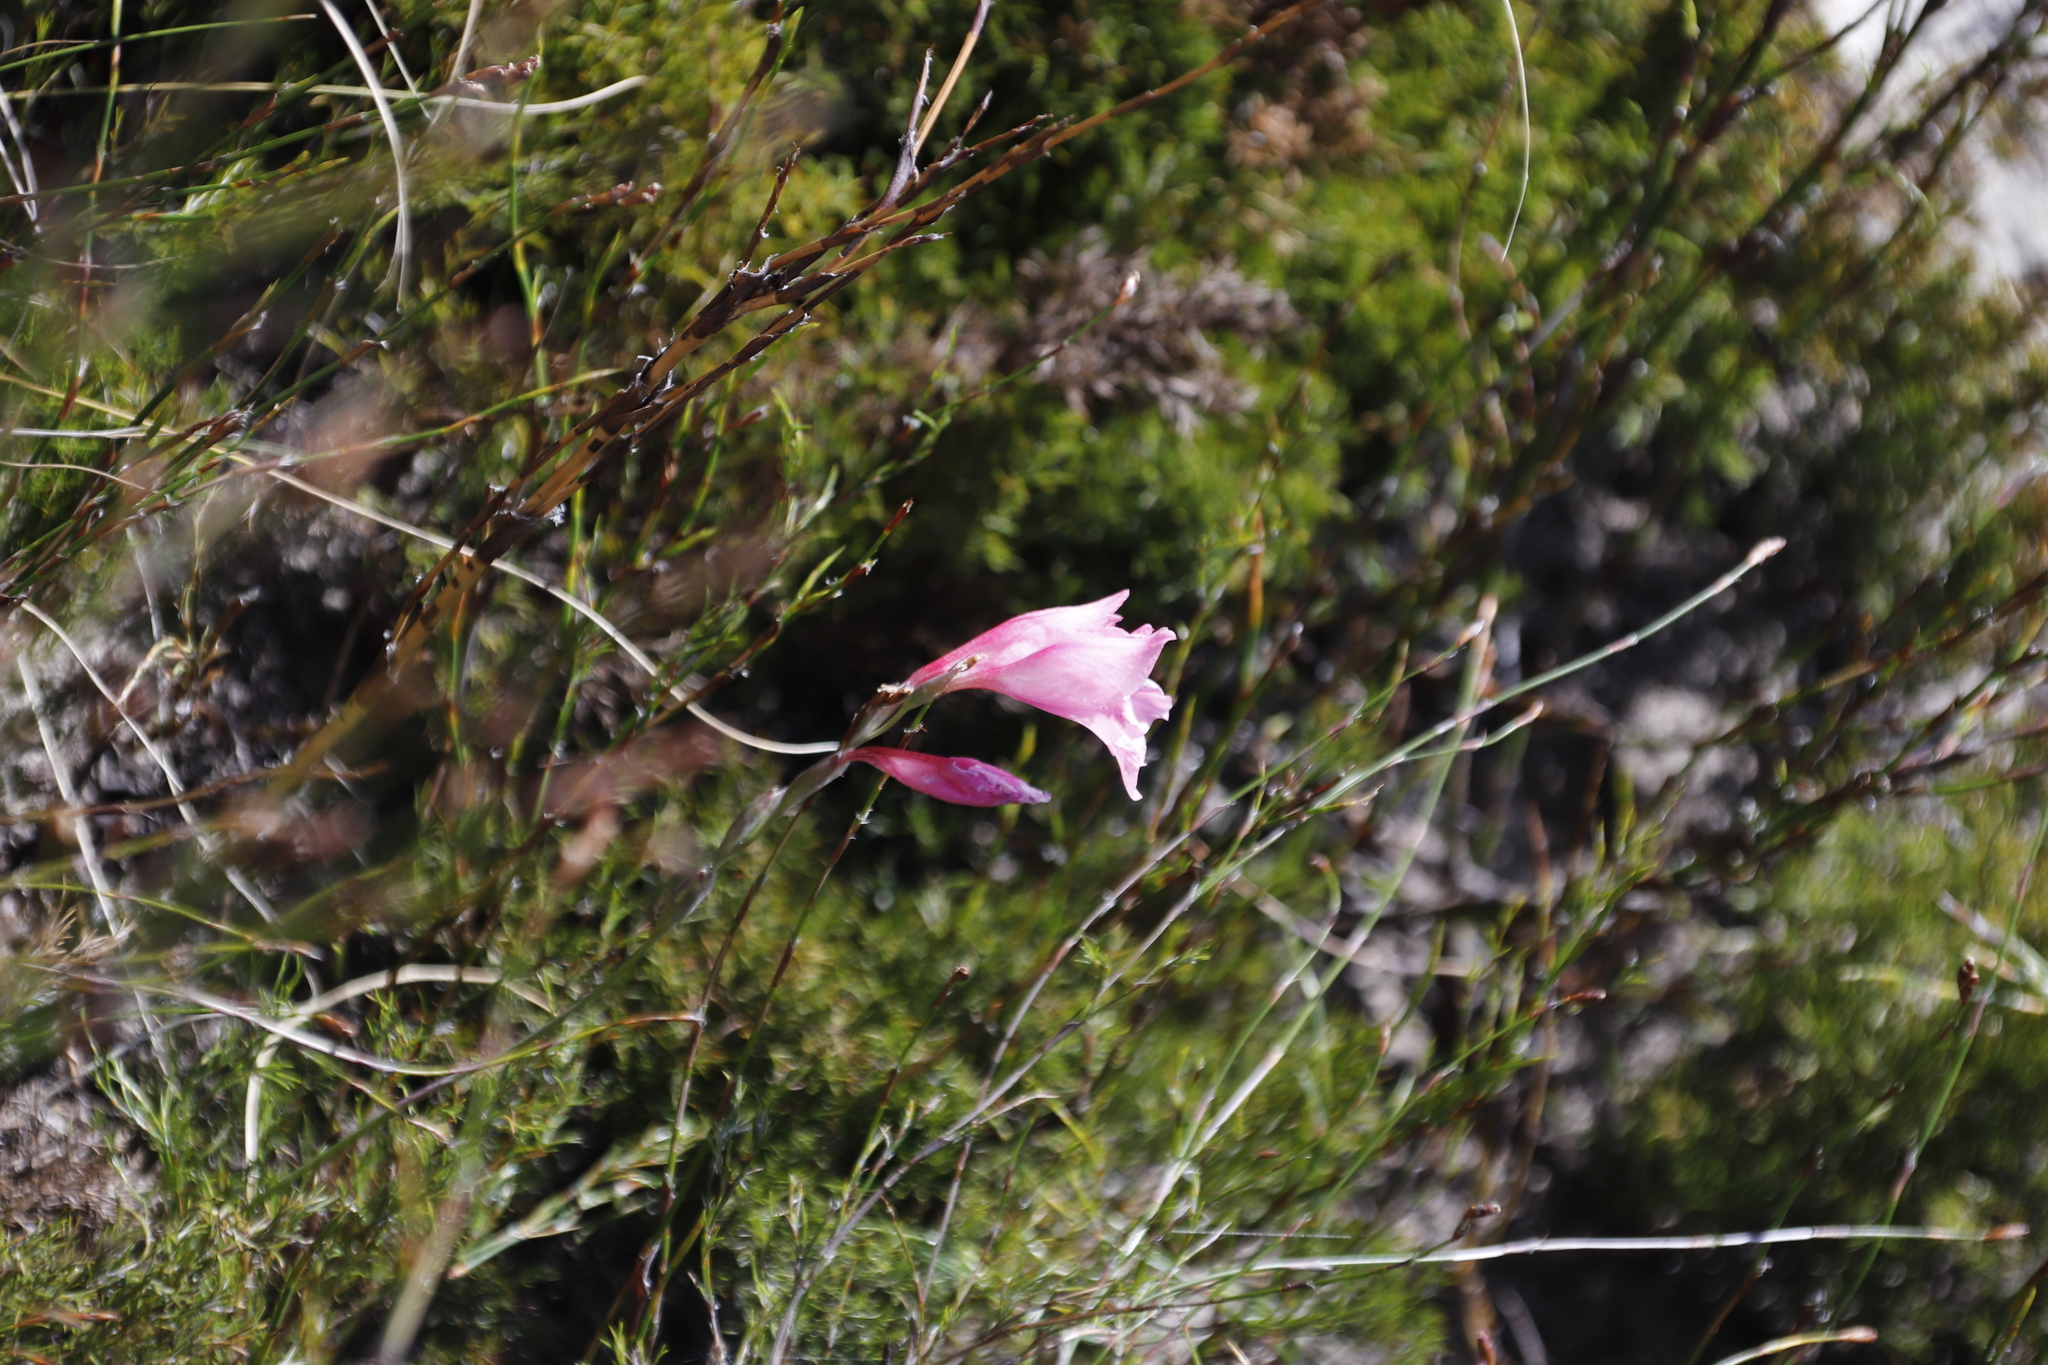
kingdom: Plantae
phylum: Tracheophyta
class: Liliopsida
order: Asparagales
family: Iridaceae
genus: Gladiolus
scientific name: Gladiolus brevifolius
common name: March pypie
